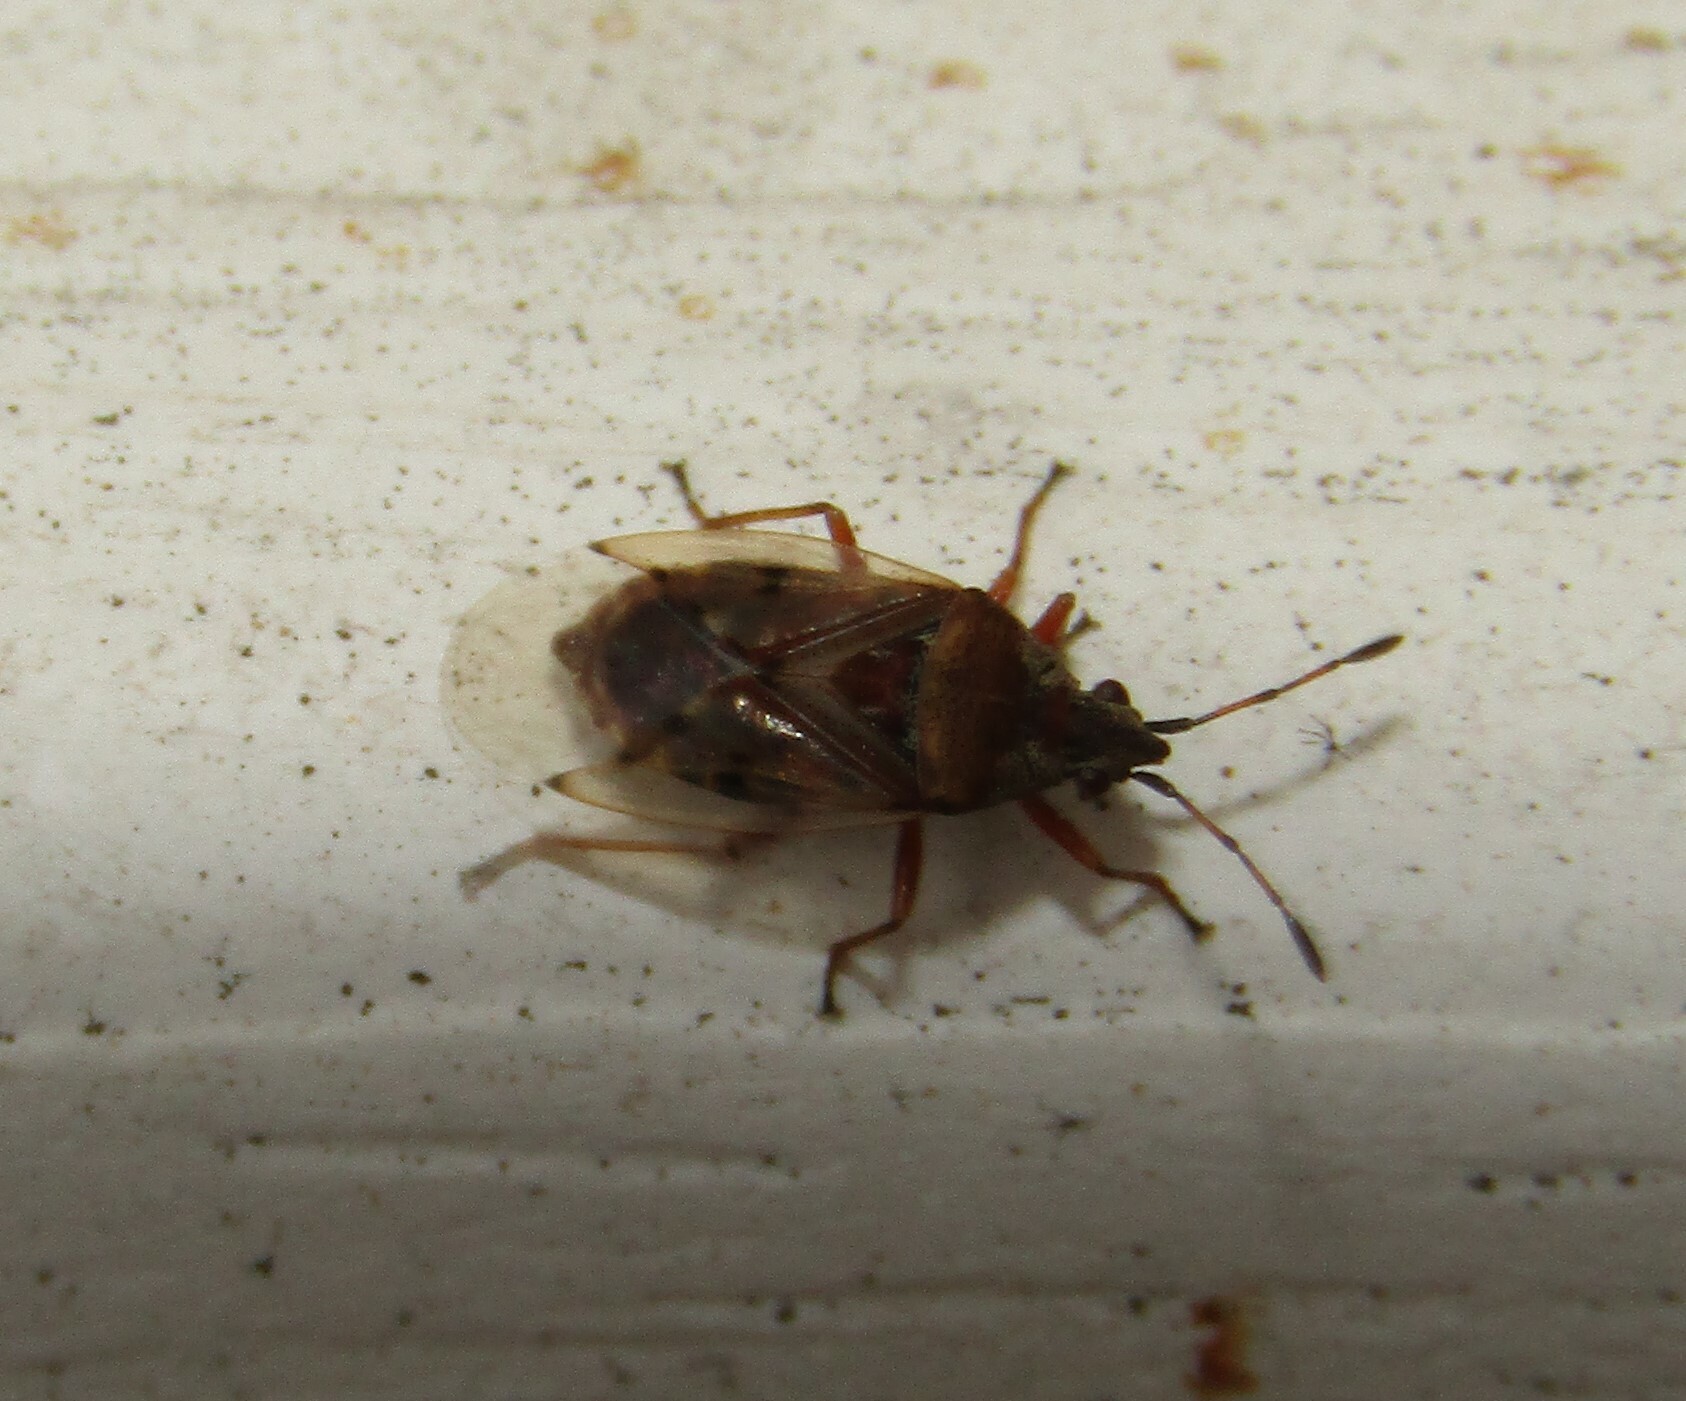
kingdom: Animalia
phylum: Arthropoda
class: Insecta
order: Hemiptera
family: Lygaeidae
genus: Kleidocerys
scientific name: Kleidocerys resedae
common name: Birch catkin bug
